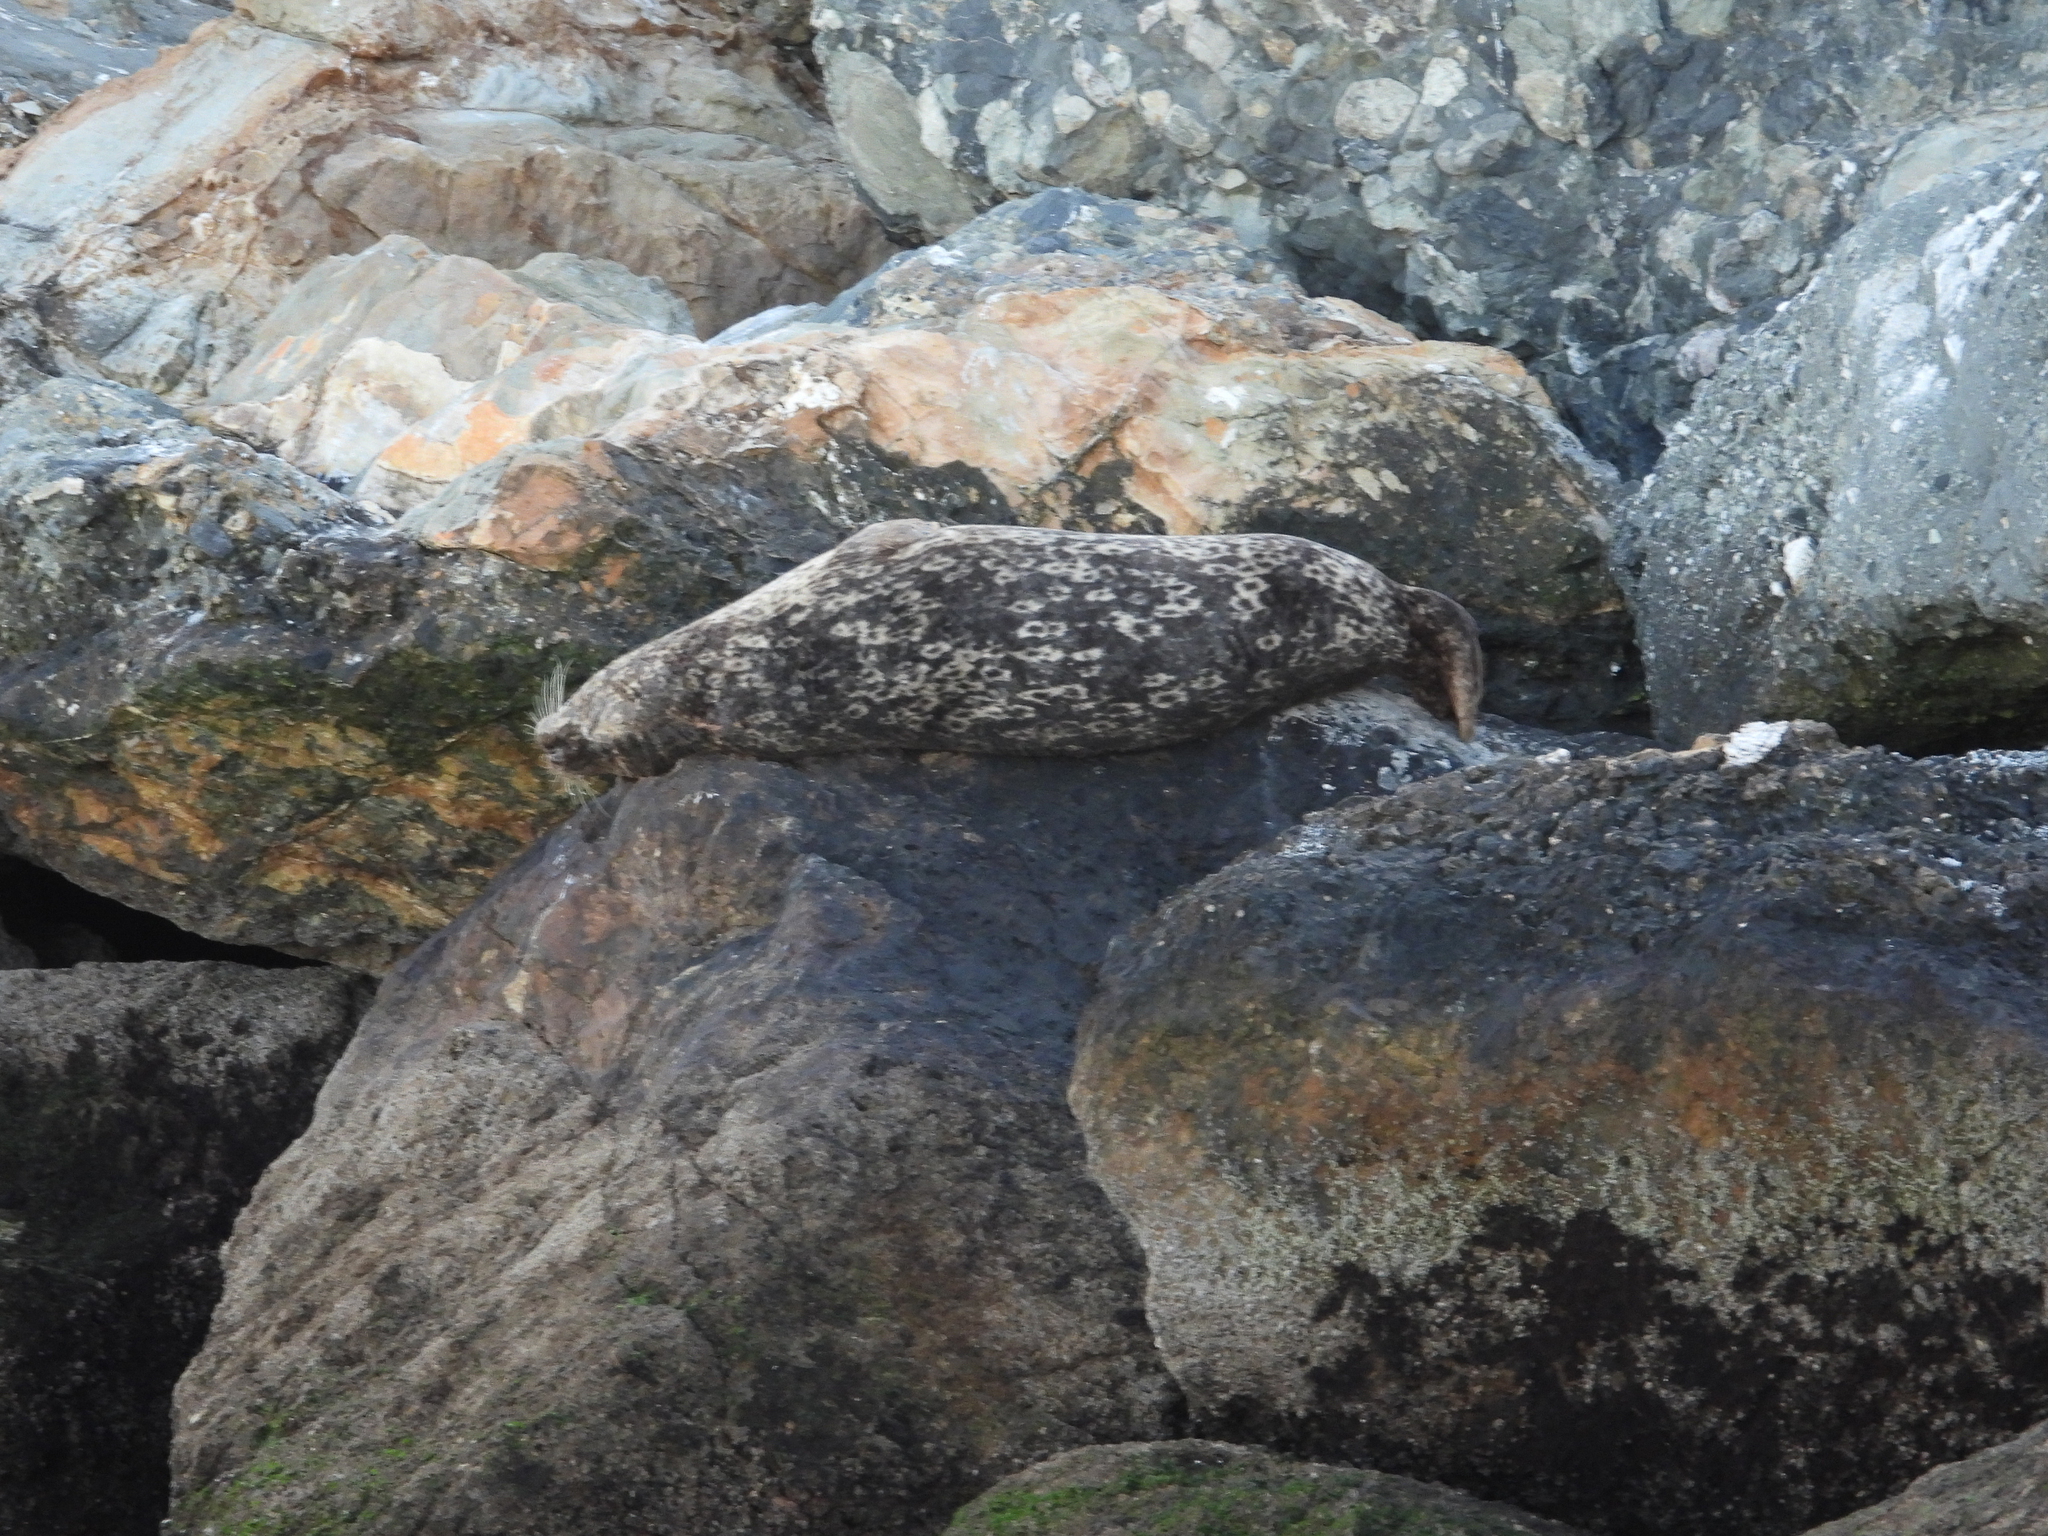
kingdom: Animalia
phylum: Chordata
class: Mammalia
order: Carnivora
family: Phocidae
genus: Phoca
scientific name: Phoca vitulina
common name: Harbor seal
